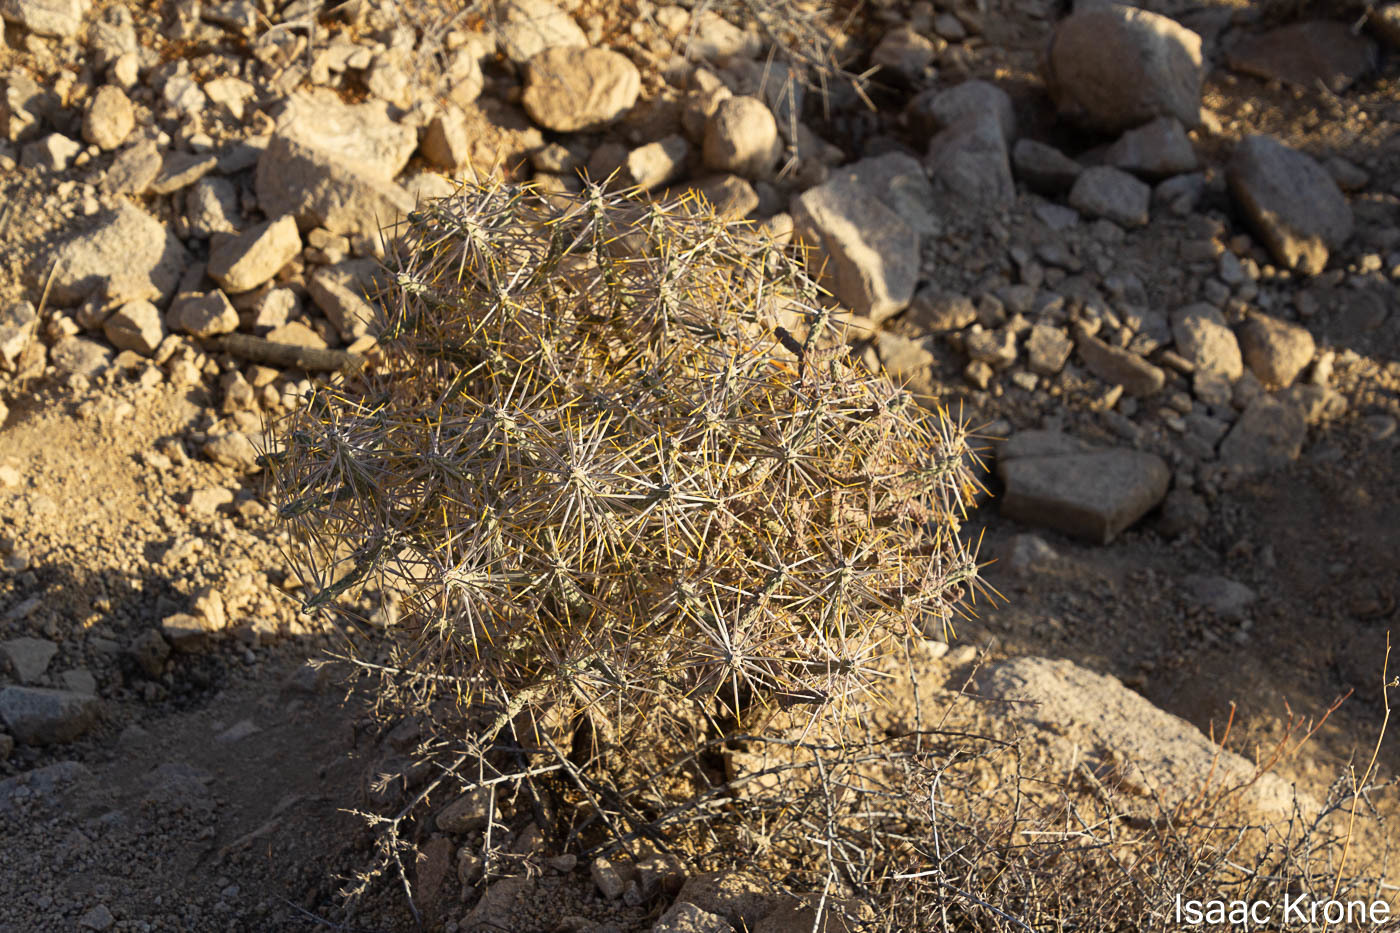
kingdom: Plantae
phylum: Tracheophyta
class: Magnoliopsida
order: Caryophyllales
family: Cactaceae
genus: Cylindropuntia
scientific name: Cylindropuntia ramosissima
